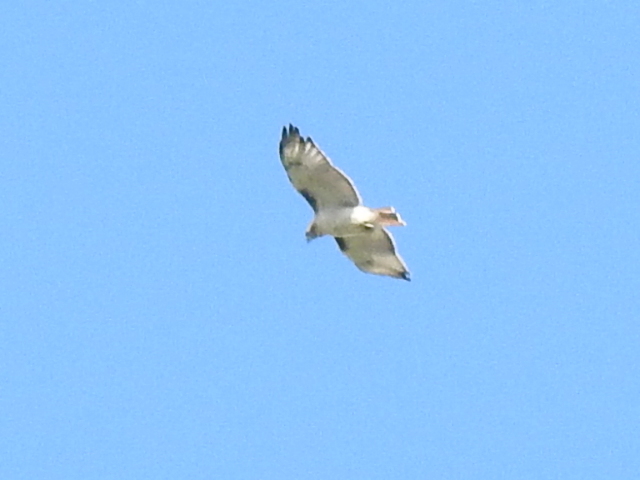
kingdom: Animalia
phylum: Chordata
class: Aves
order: Accipitriformes
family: Accipitridae
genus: Buteo
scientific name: Buteo jamaicensis
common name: Red-tailed hawk
